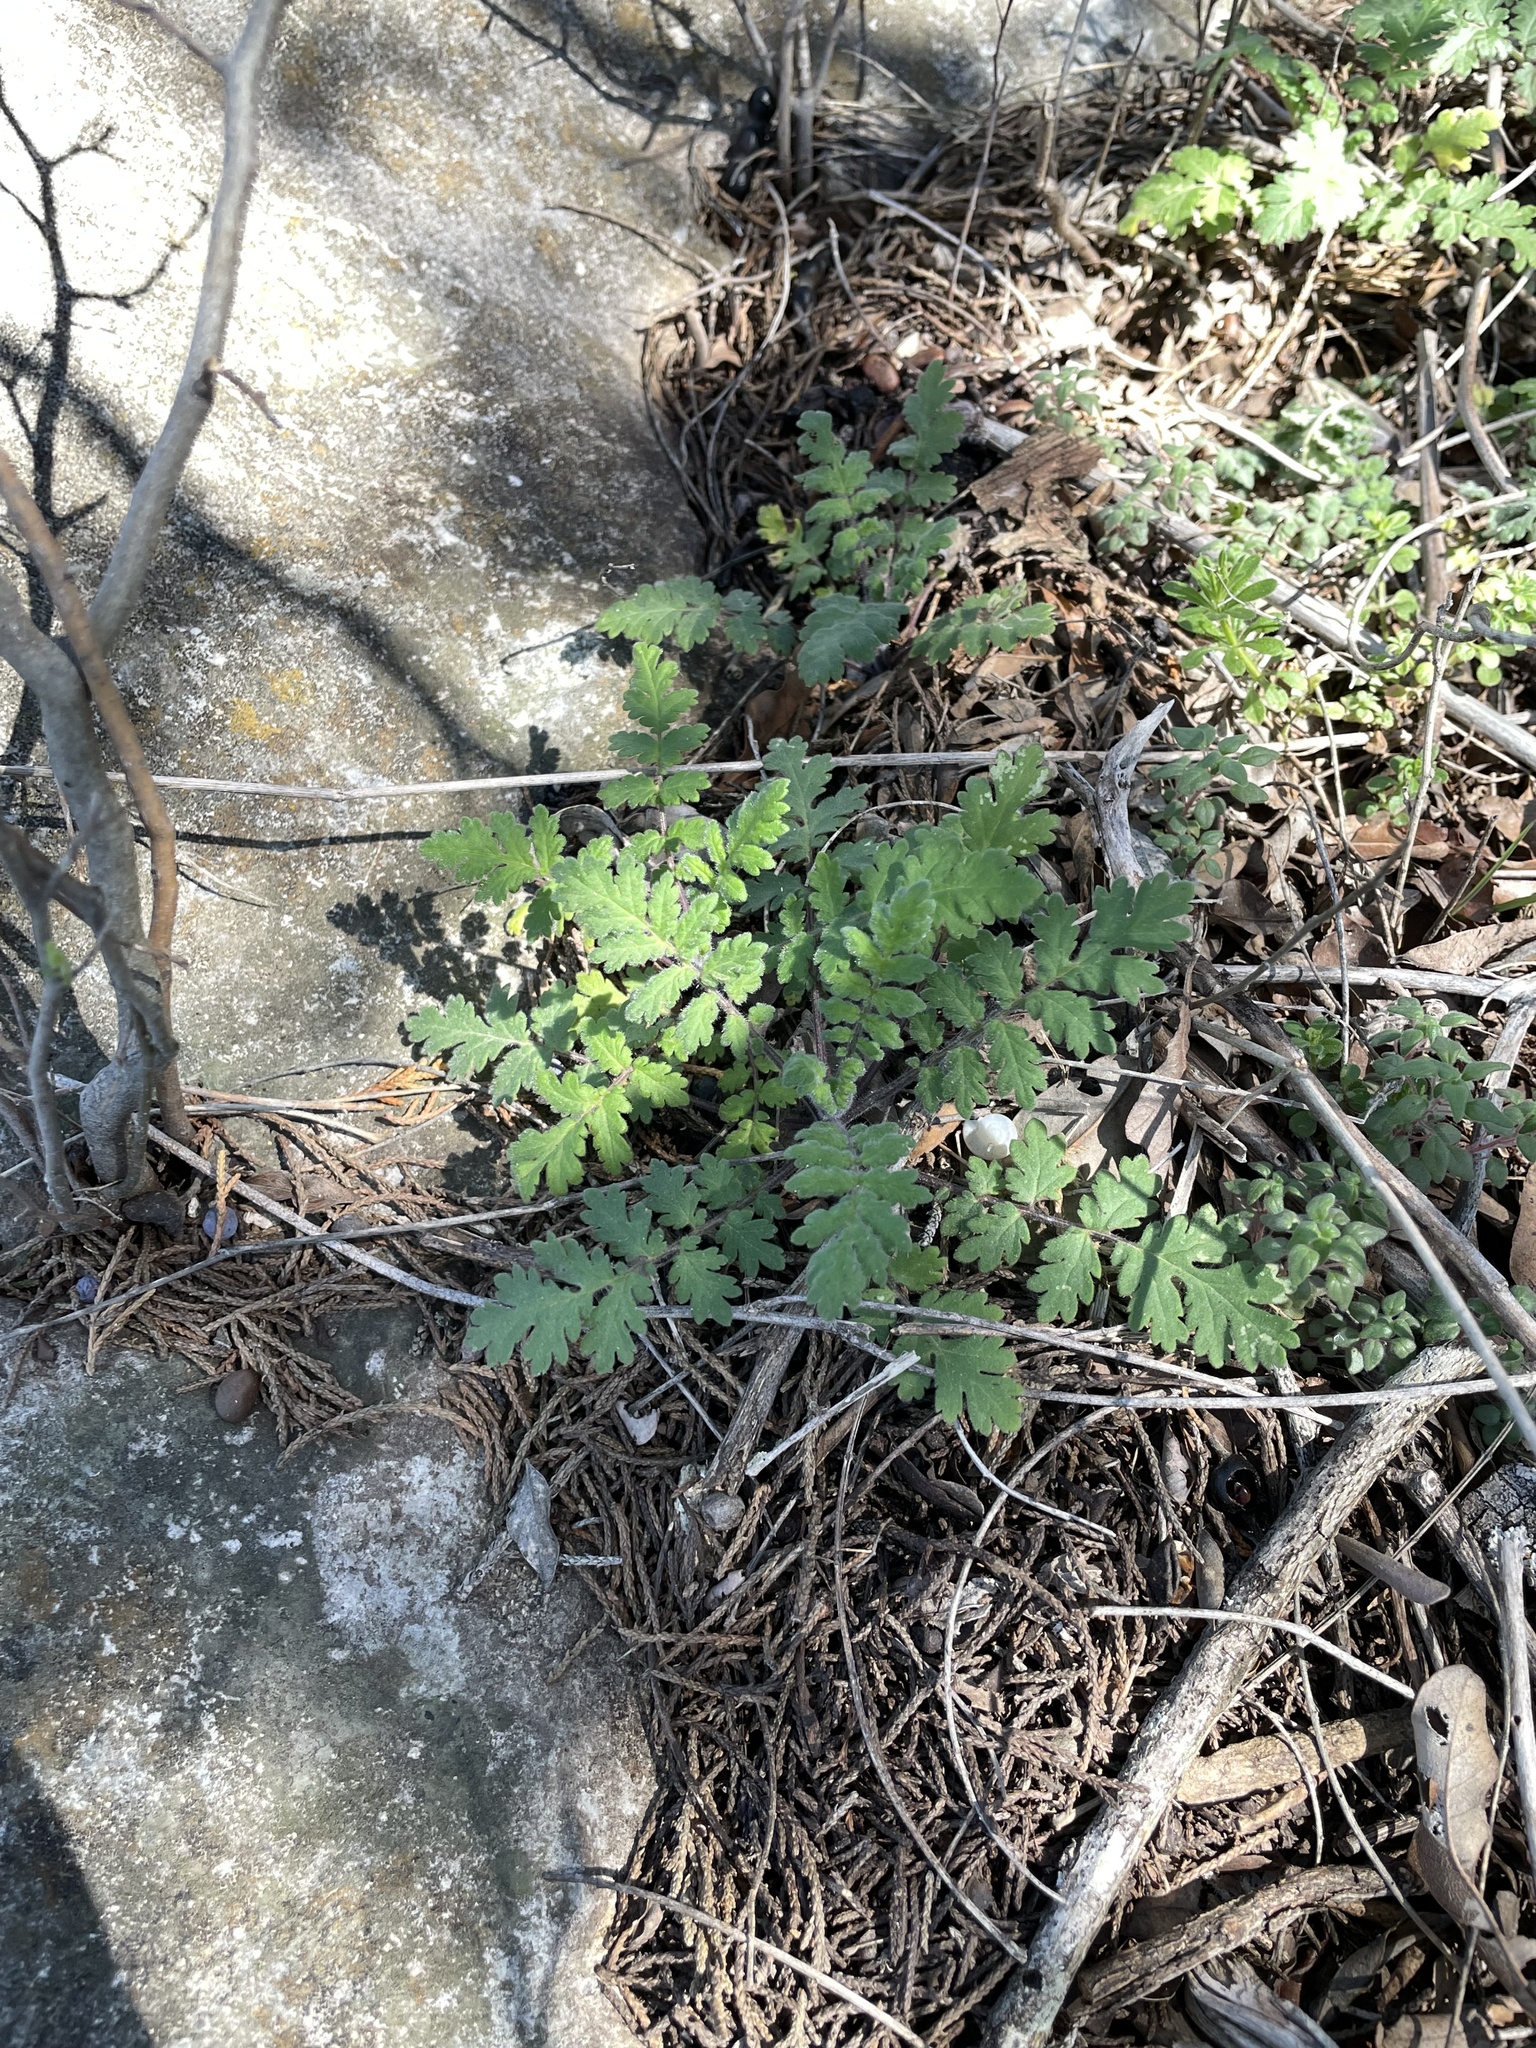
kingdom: Plantae
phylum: Tracheophyta
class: Magnoliopsida
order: Boraginales
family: Hydrophyllaceae
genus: Phacelia
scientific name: Phacelia congesta
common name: Blue curls
